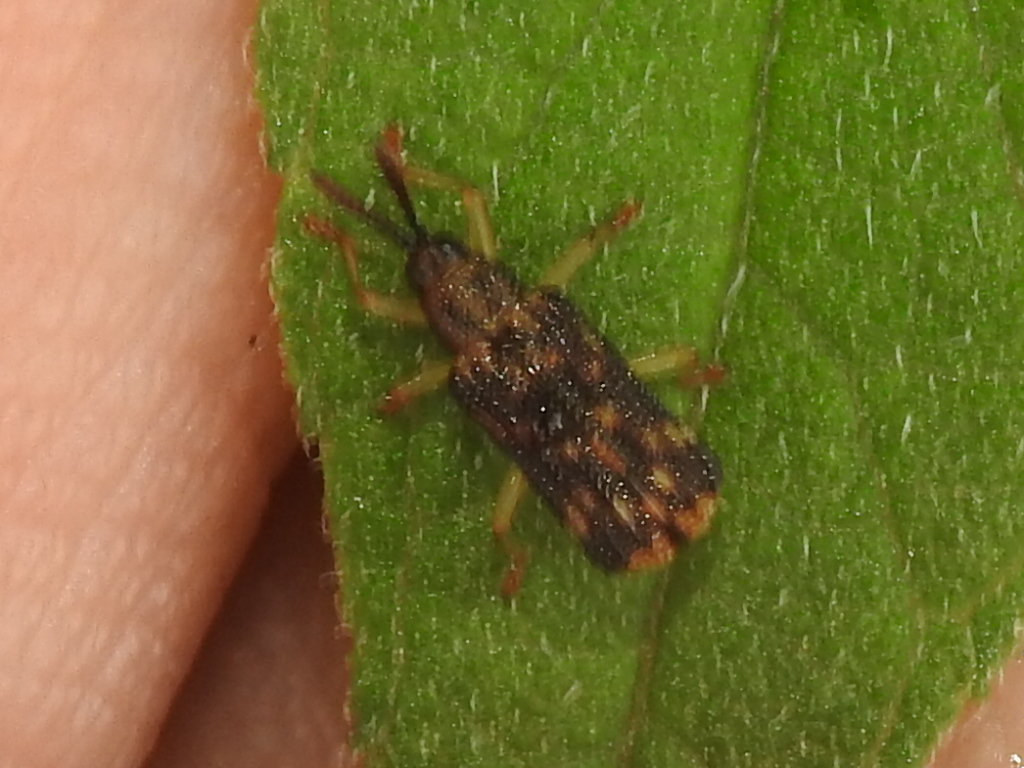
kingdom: Animalia
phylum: Arthropoda
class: Insecta
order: Coleoptera
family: Chrysomelidae
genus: Sumitrosis
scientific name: Sumitrosis inaequalis
